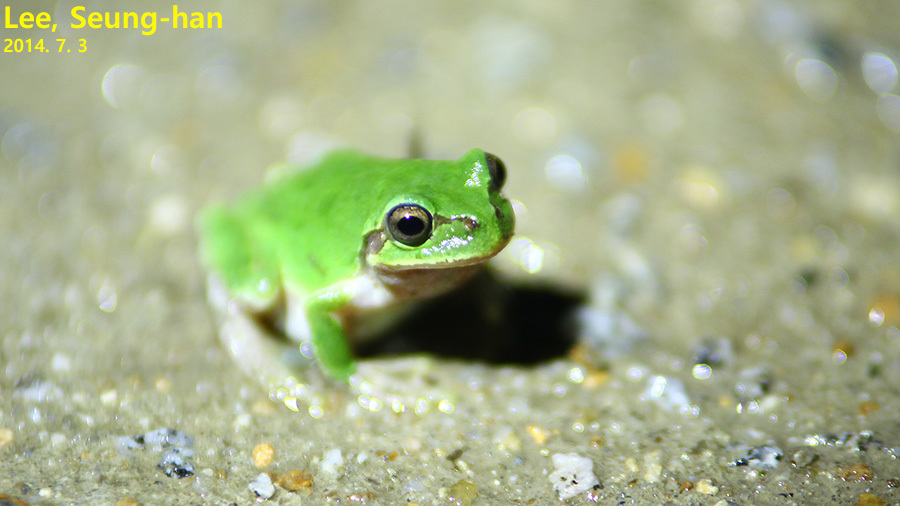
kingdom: Animalia
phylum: Chordata
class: Amphibia
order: Anura
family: Hylidae
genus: Dryophytes
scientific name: Dryophytes japonicus
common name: Japanese treefrog
